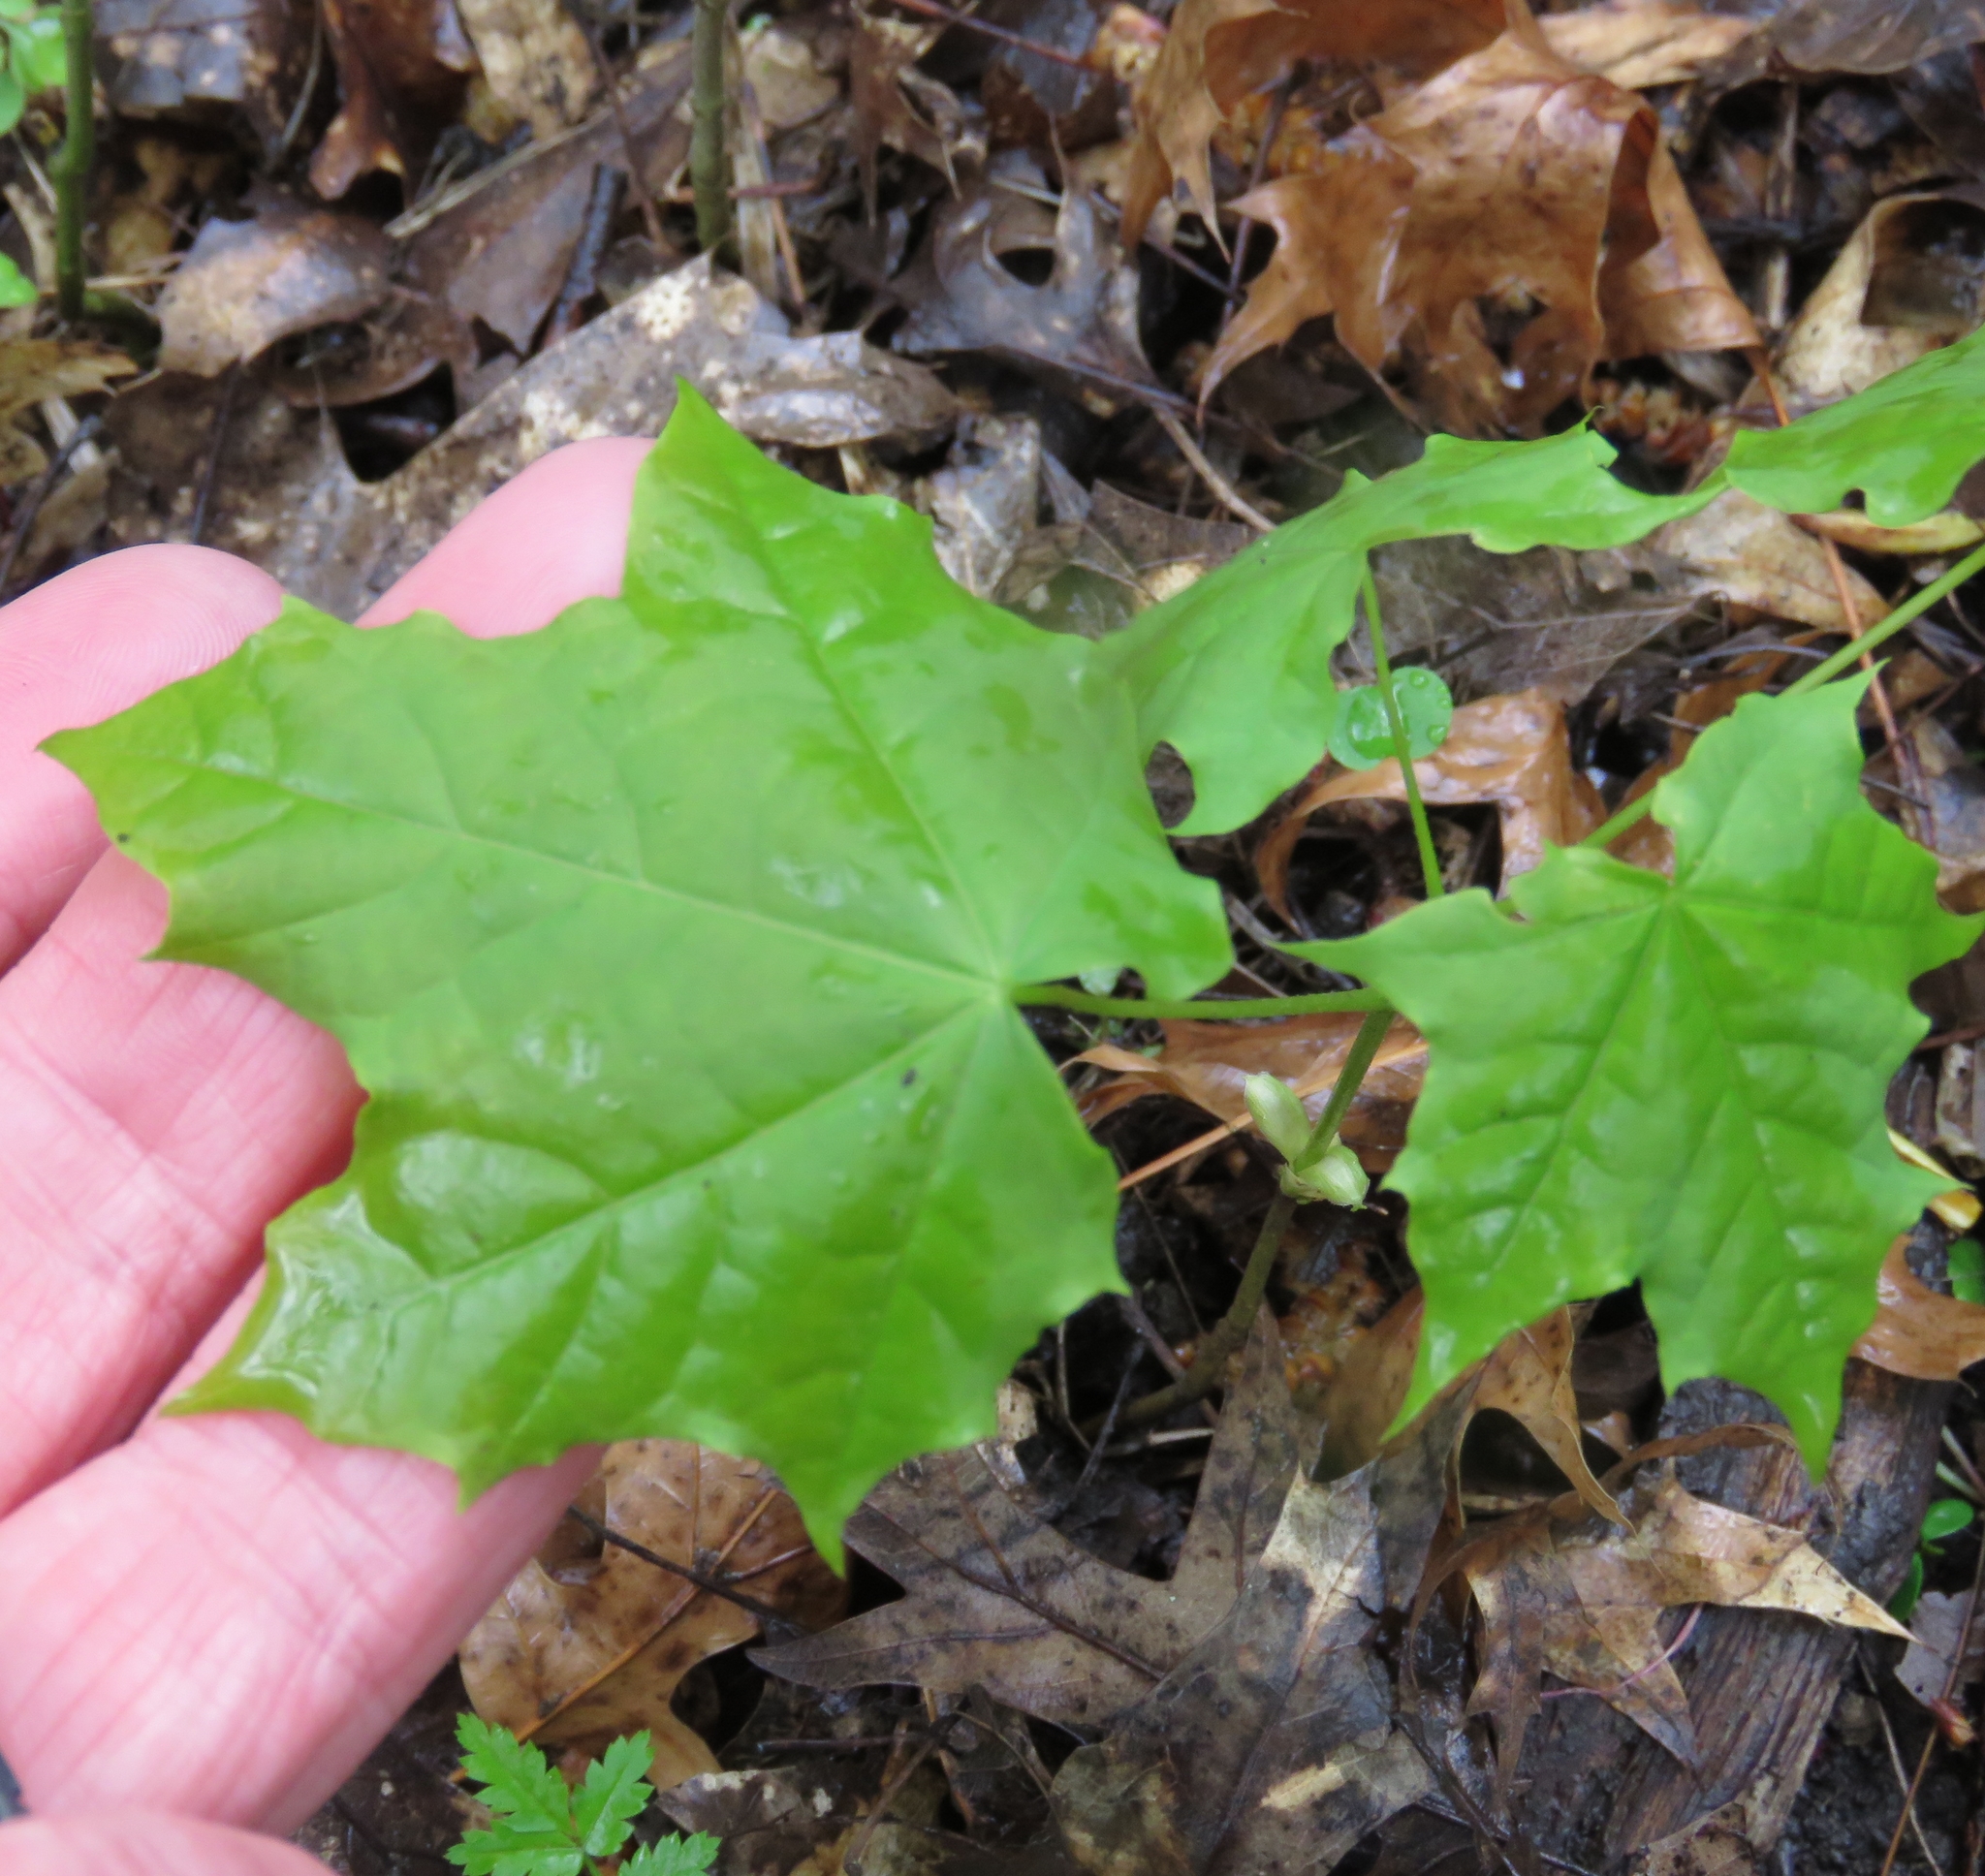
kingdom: Plantae
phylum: Tracheophyta
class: Magnoliopsida
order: Sapindales
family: Sapindaceae
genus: Acer
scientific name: Acer platanoides
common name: Norway maple
